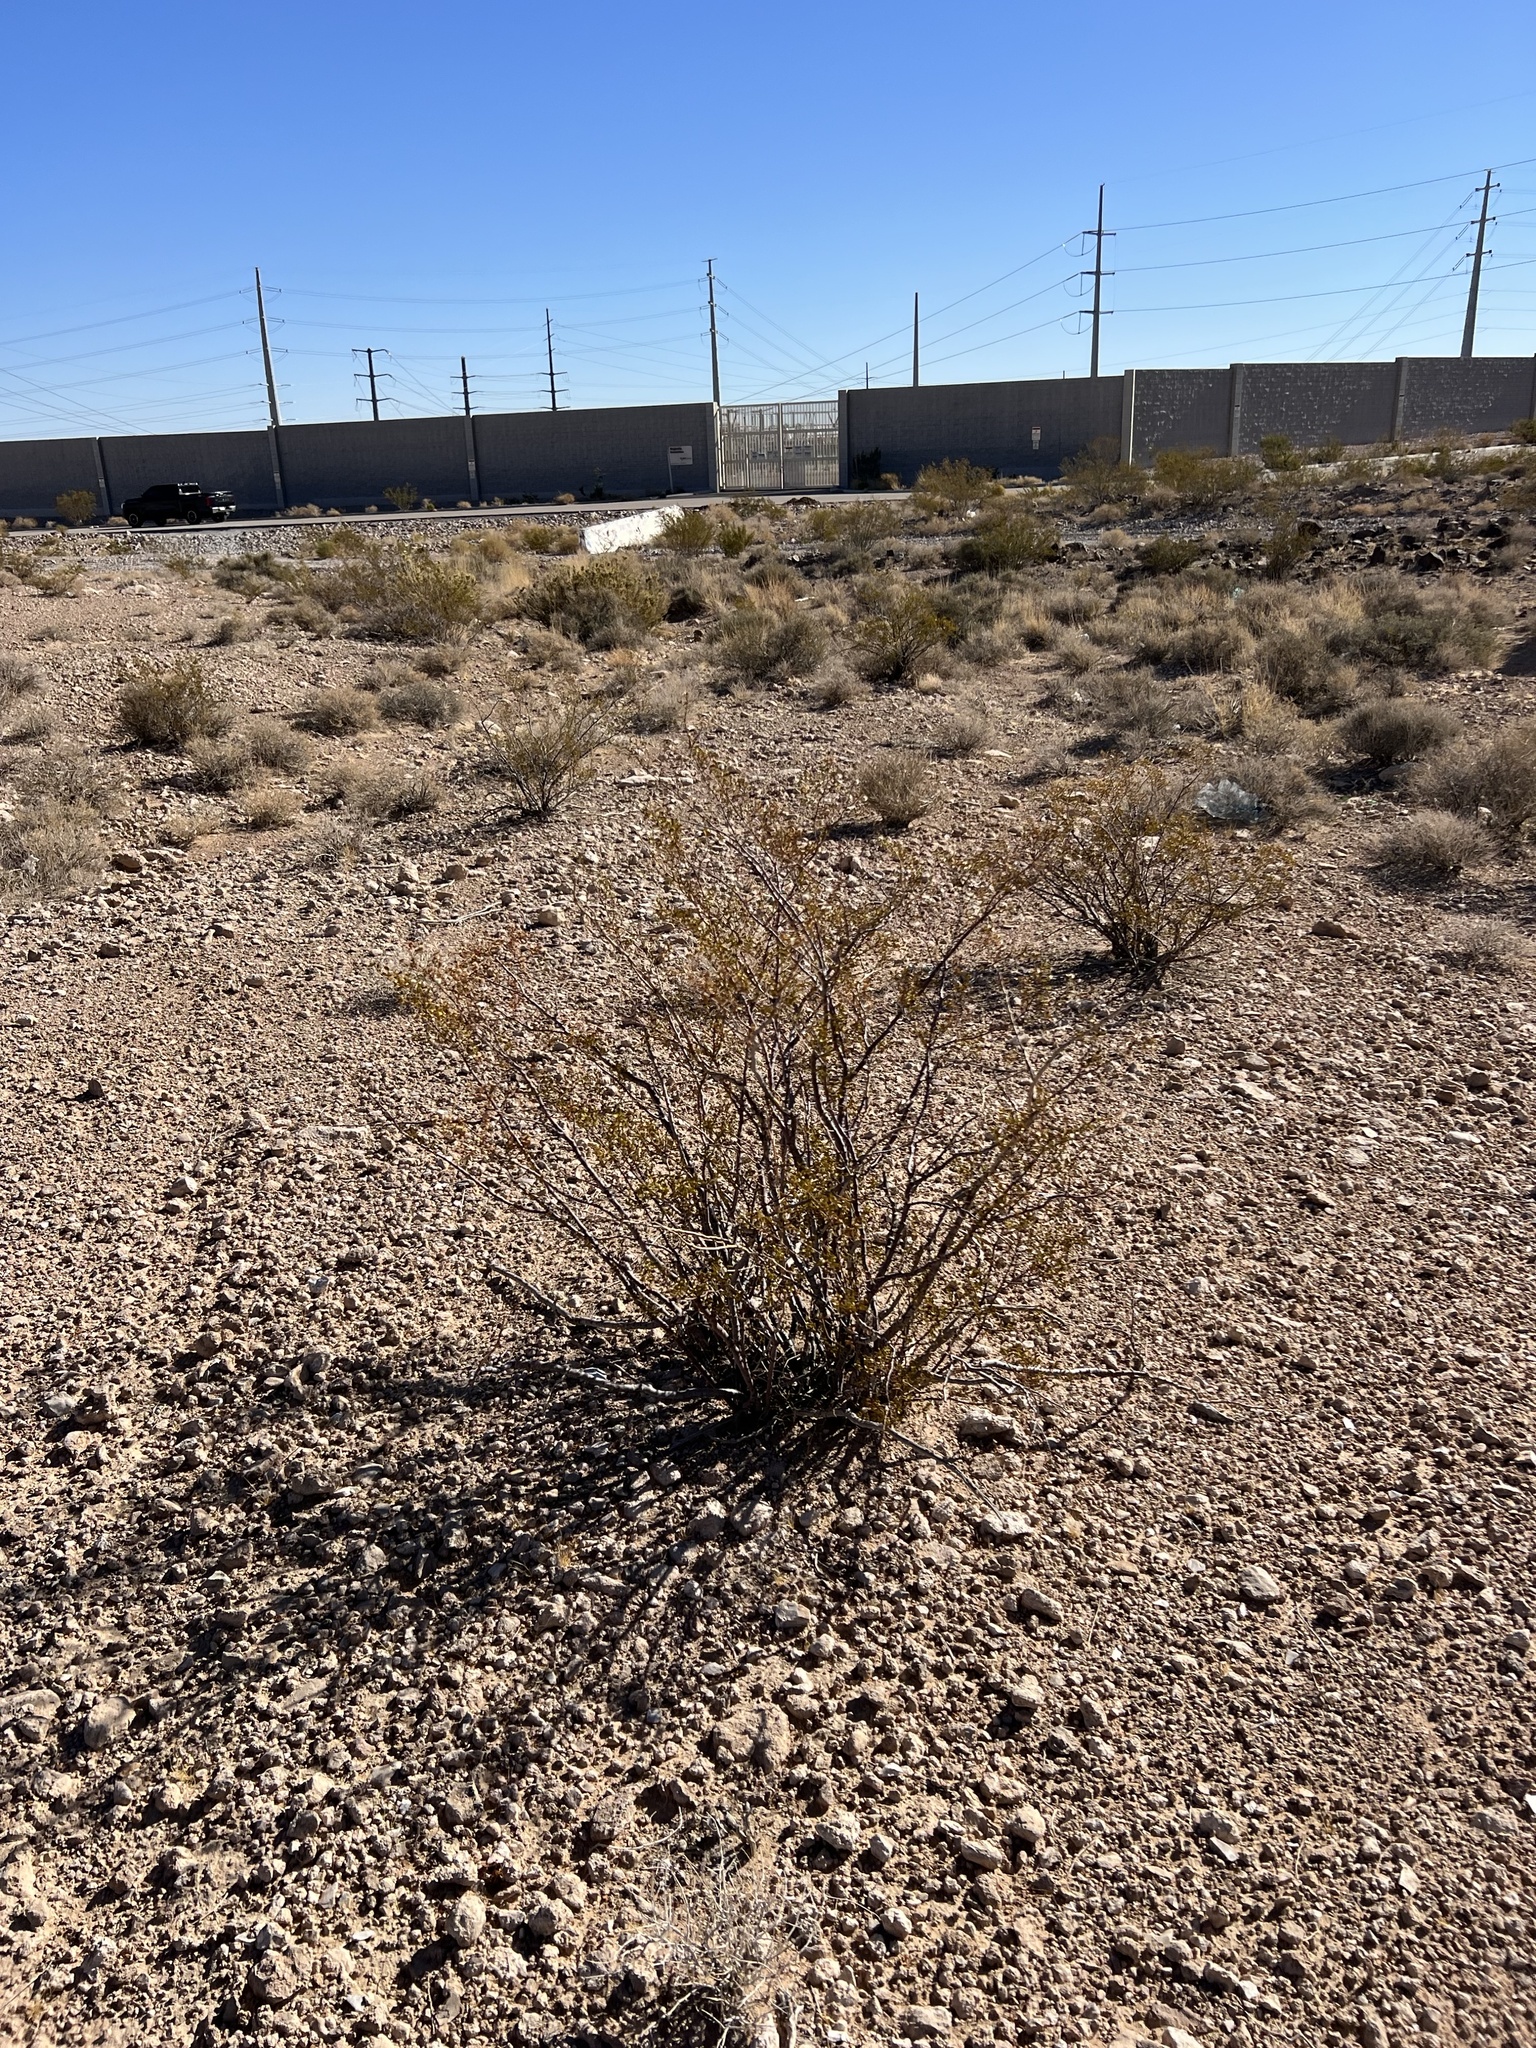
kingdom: Plantae
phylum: Tracheophyta
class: Magnoliopsida
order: Zygophyllales
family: Zygophyllaceae
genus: Larrea
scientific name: Larrea tridentata
